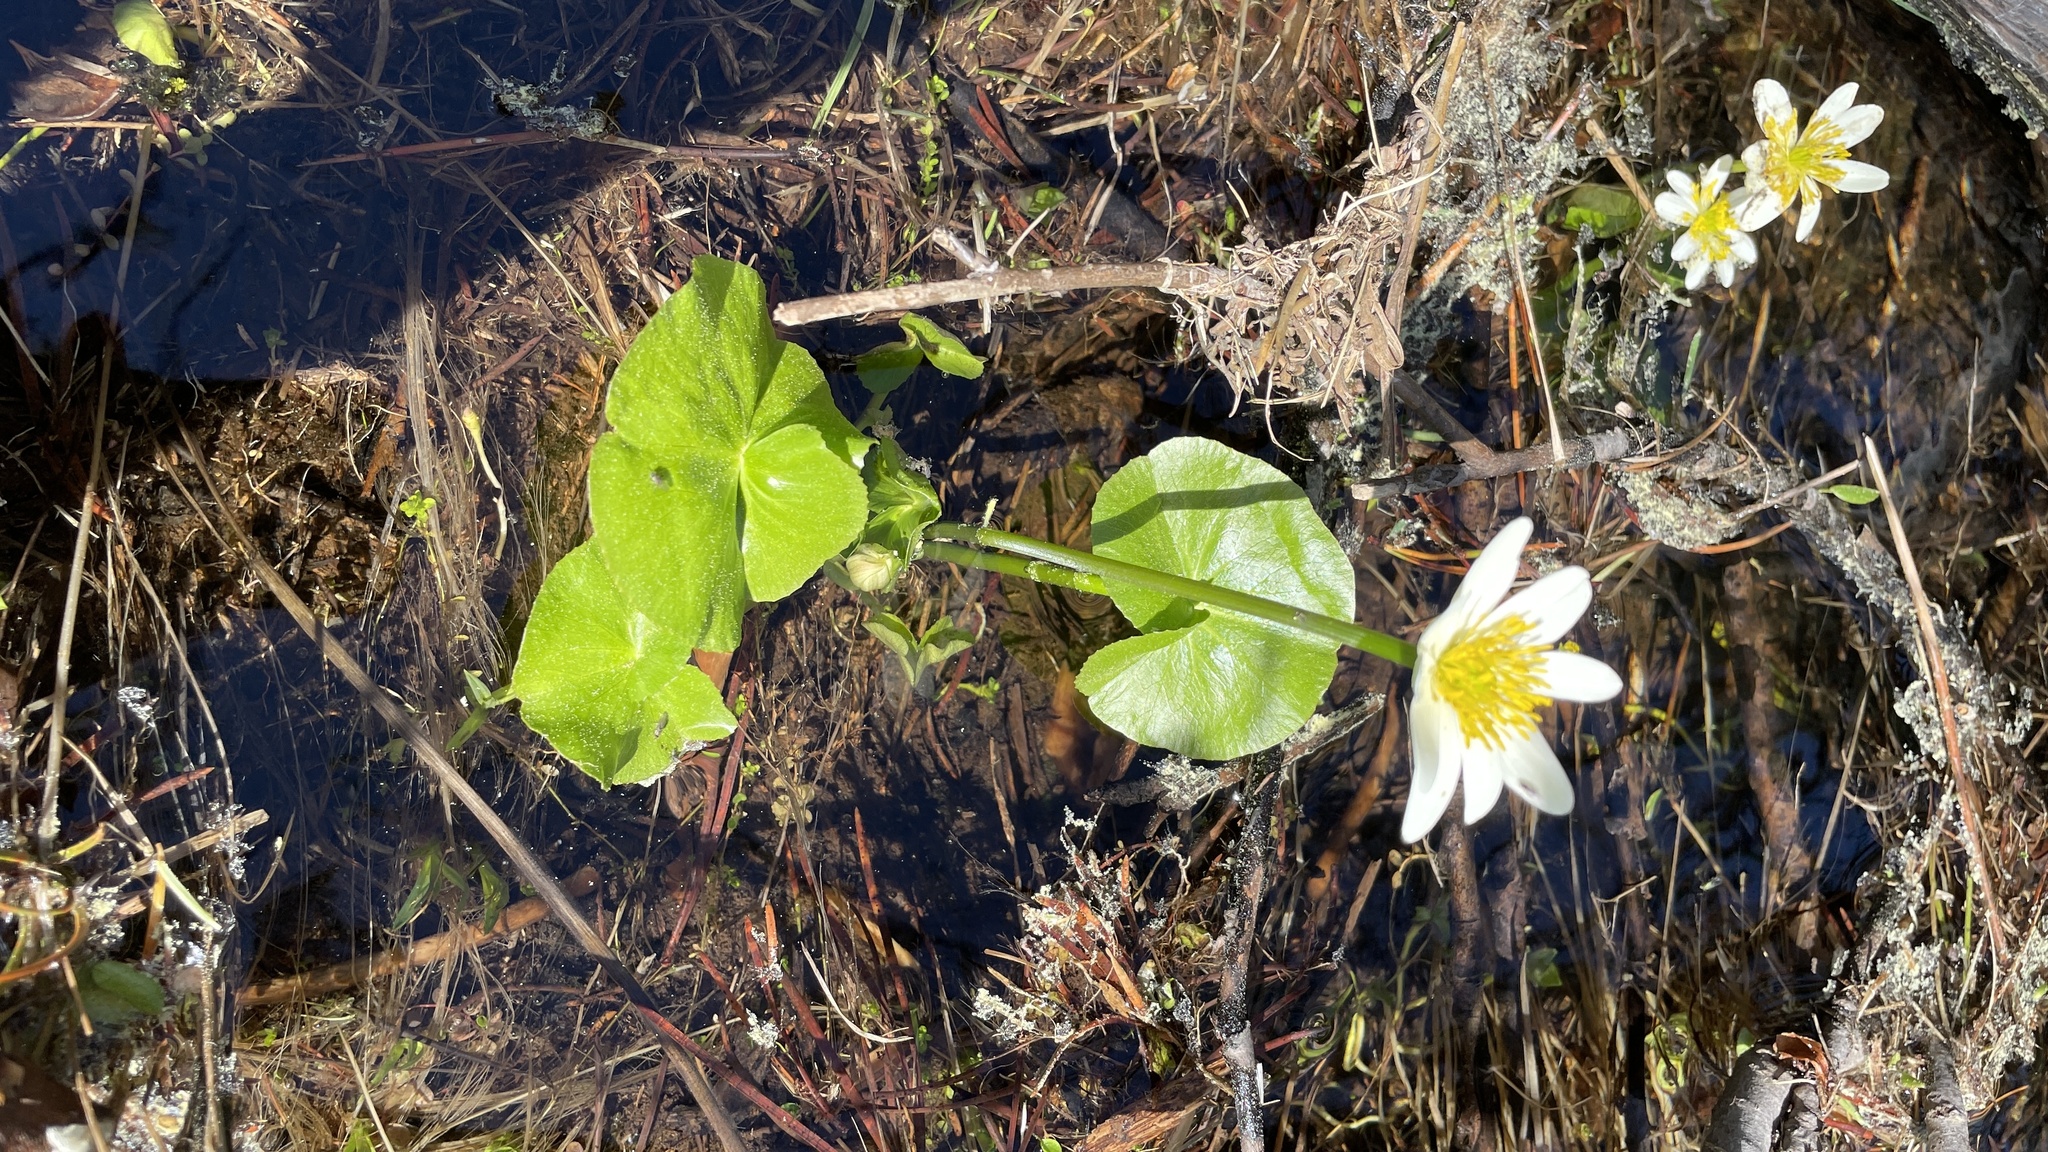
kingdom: Plantae
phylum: Tracheophyta
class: Magnoliopsida
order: Ranunculales
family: Ranunculaceae
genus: Caltha
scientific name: Caltha biflora
